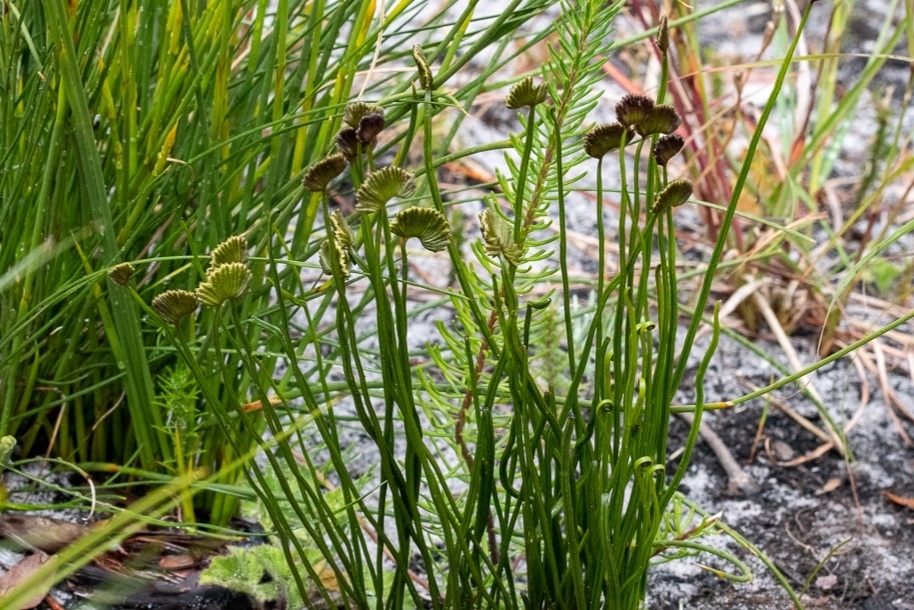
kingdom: Plantae
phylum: Tracheophyta
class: Polypodiopsida
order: Schizaeales
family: Schizaeaceae
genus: Schizaea
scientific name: Schizaea pectinata
